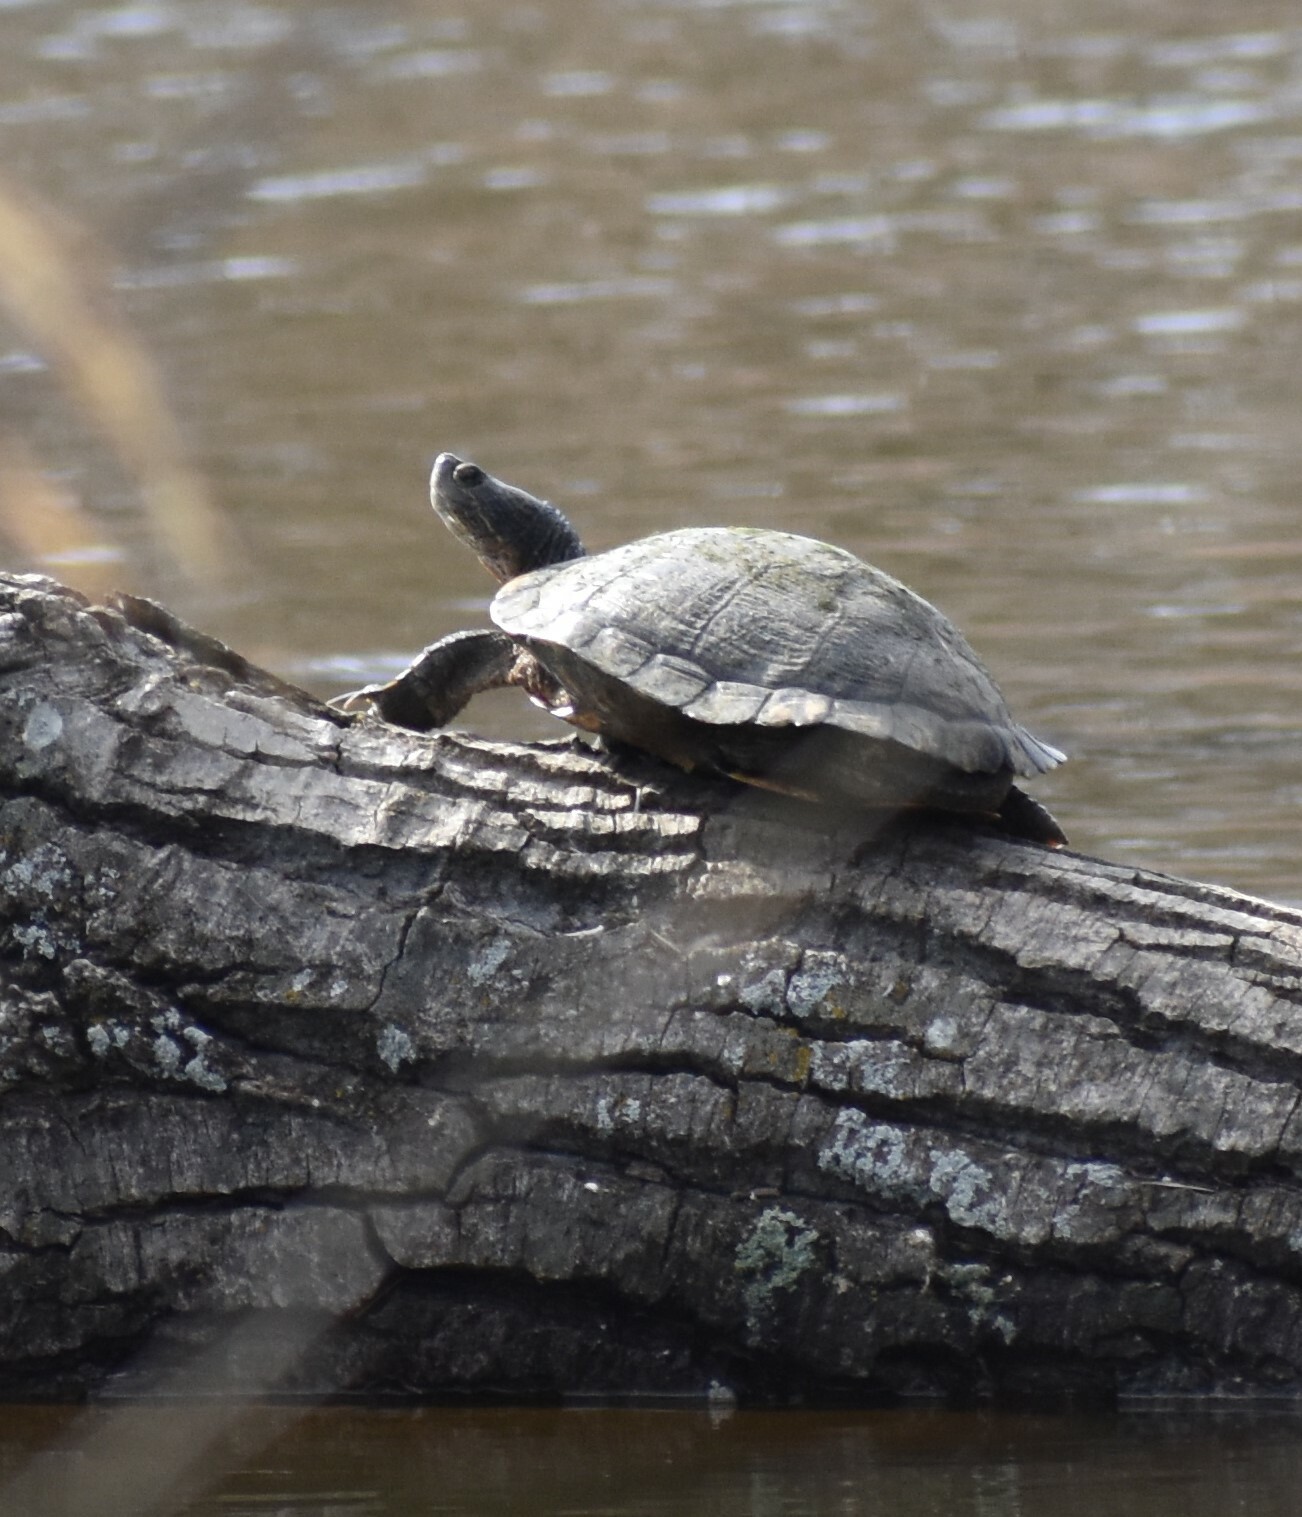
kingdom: Animalia
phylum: Chordata
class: Testudines
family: Emydidae
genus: Trachemys
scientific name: Trachemys scripta
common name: Slider
